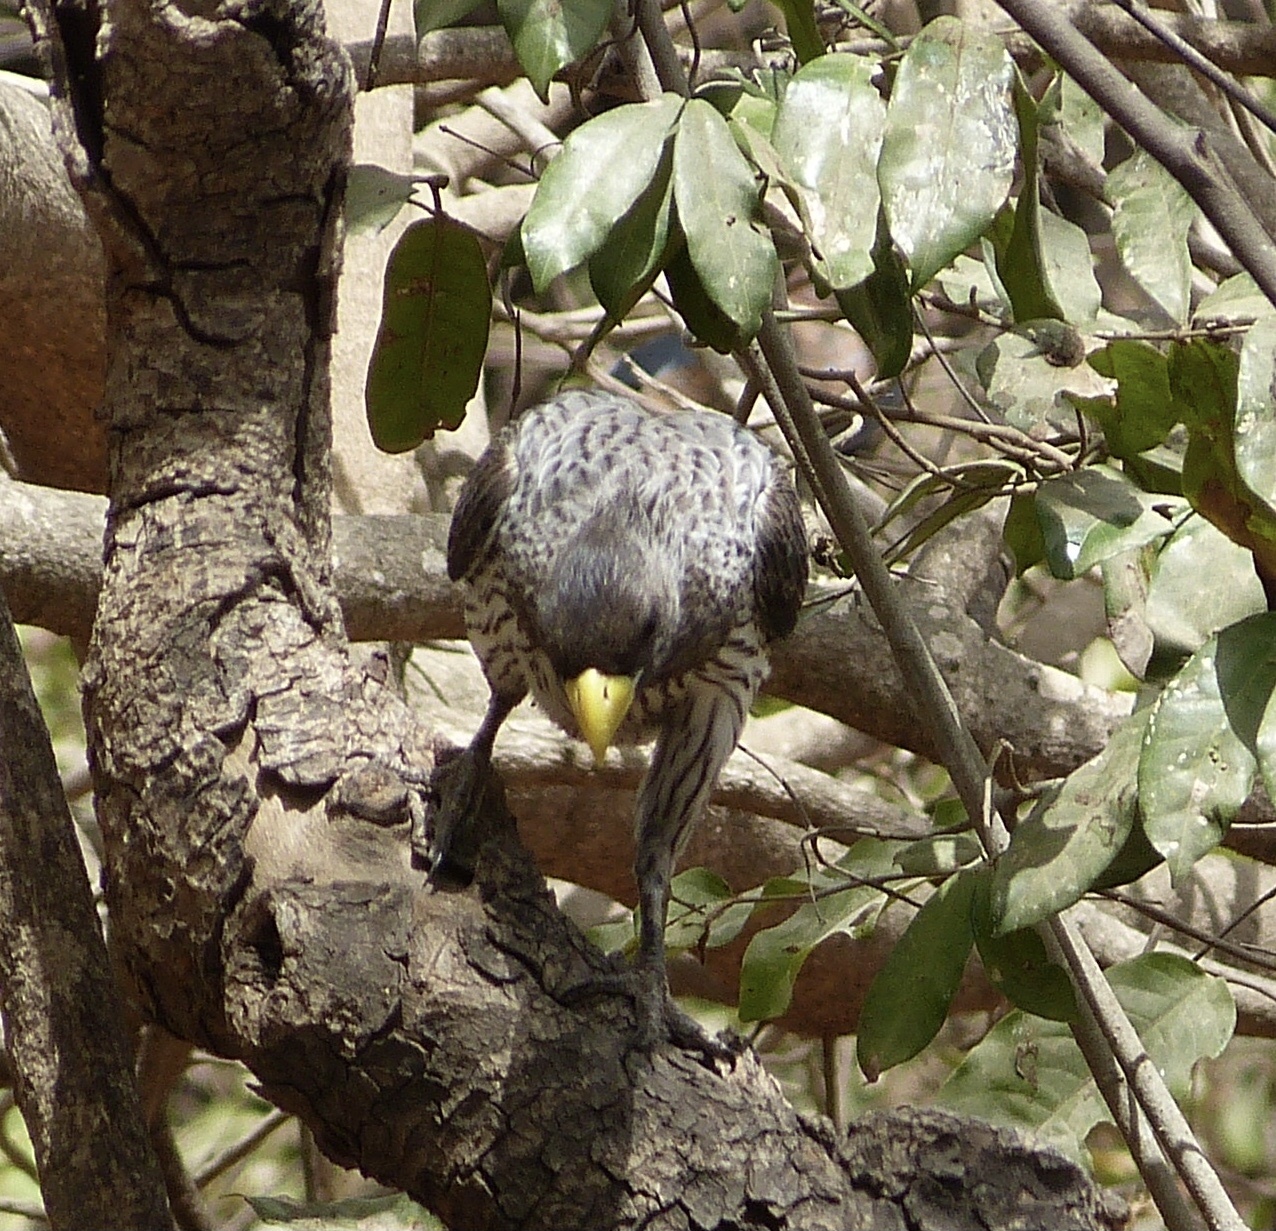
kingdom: Animalia
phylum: Chordata
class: Aves
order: Musophagiformes
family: Musophagidae
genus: Crinifer
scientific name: Crinifer piscator
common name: Western plantain-eater
